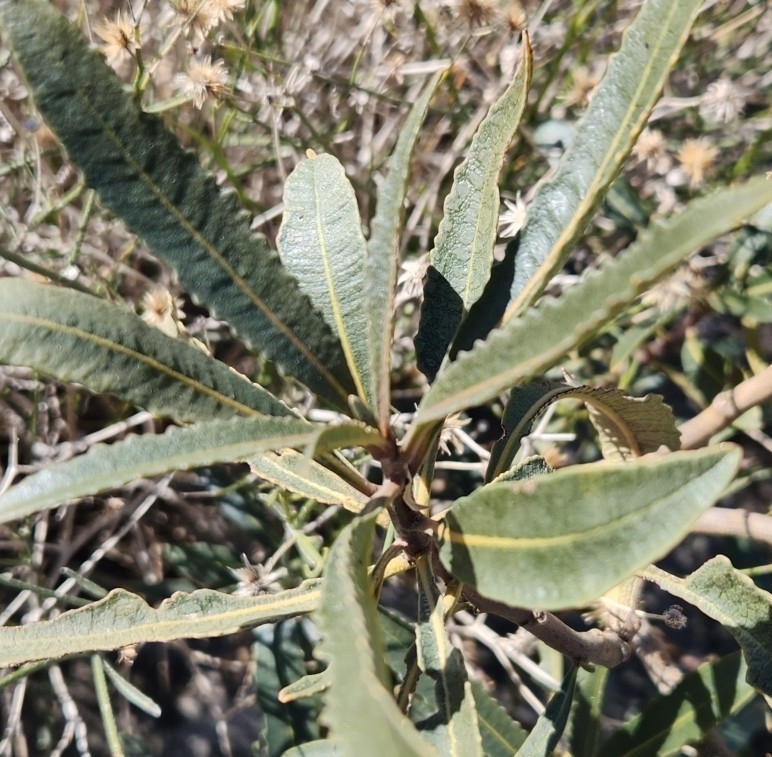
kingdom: Plantae
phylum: Tracheophyta
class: Magnoliopsida
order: Boraginales
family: Namaceae
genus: Eriodictyon
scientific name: Eriodictyon trichocalyx
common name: Hairy yerba-santa
